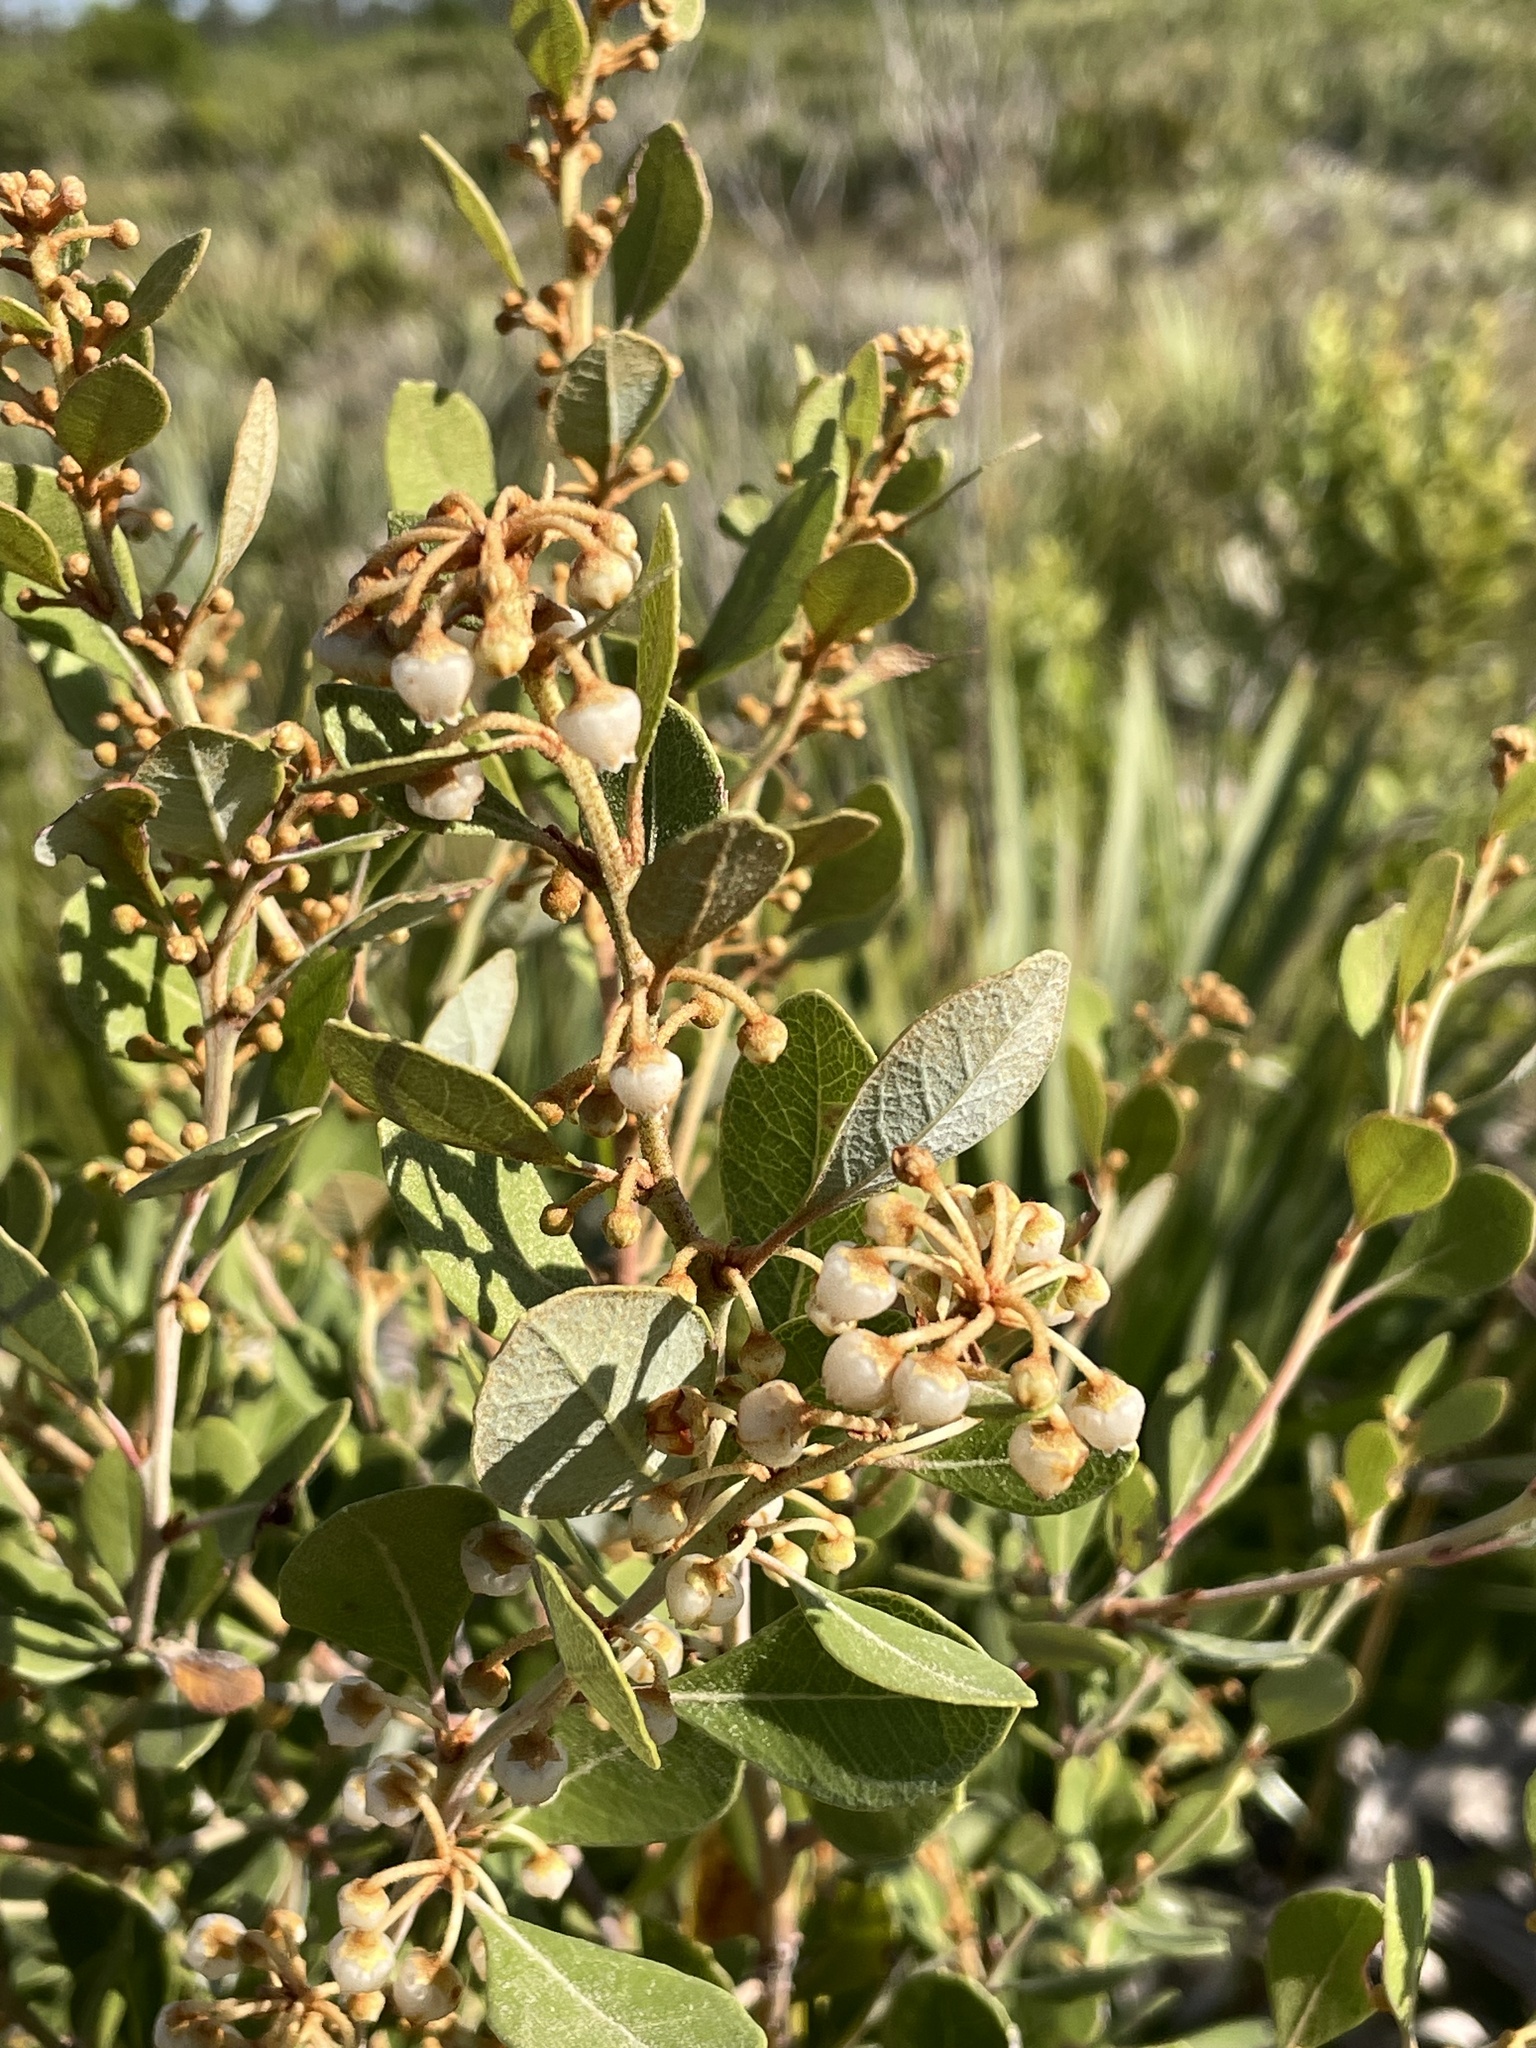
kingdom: Plantae
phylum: Tracheophyta
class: Magnoliopsida
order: Ericales
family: Ericaceae
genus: Lyonia
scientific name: Lyonia fruticosa
